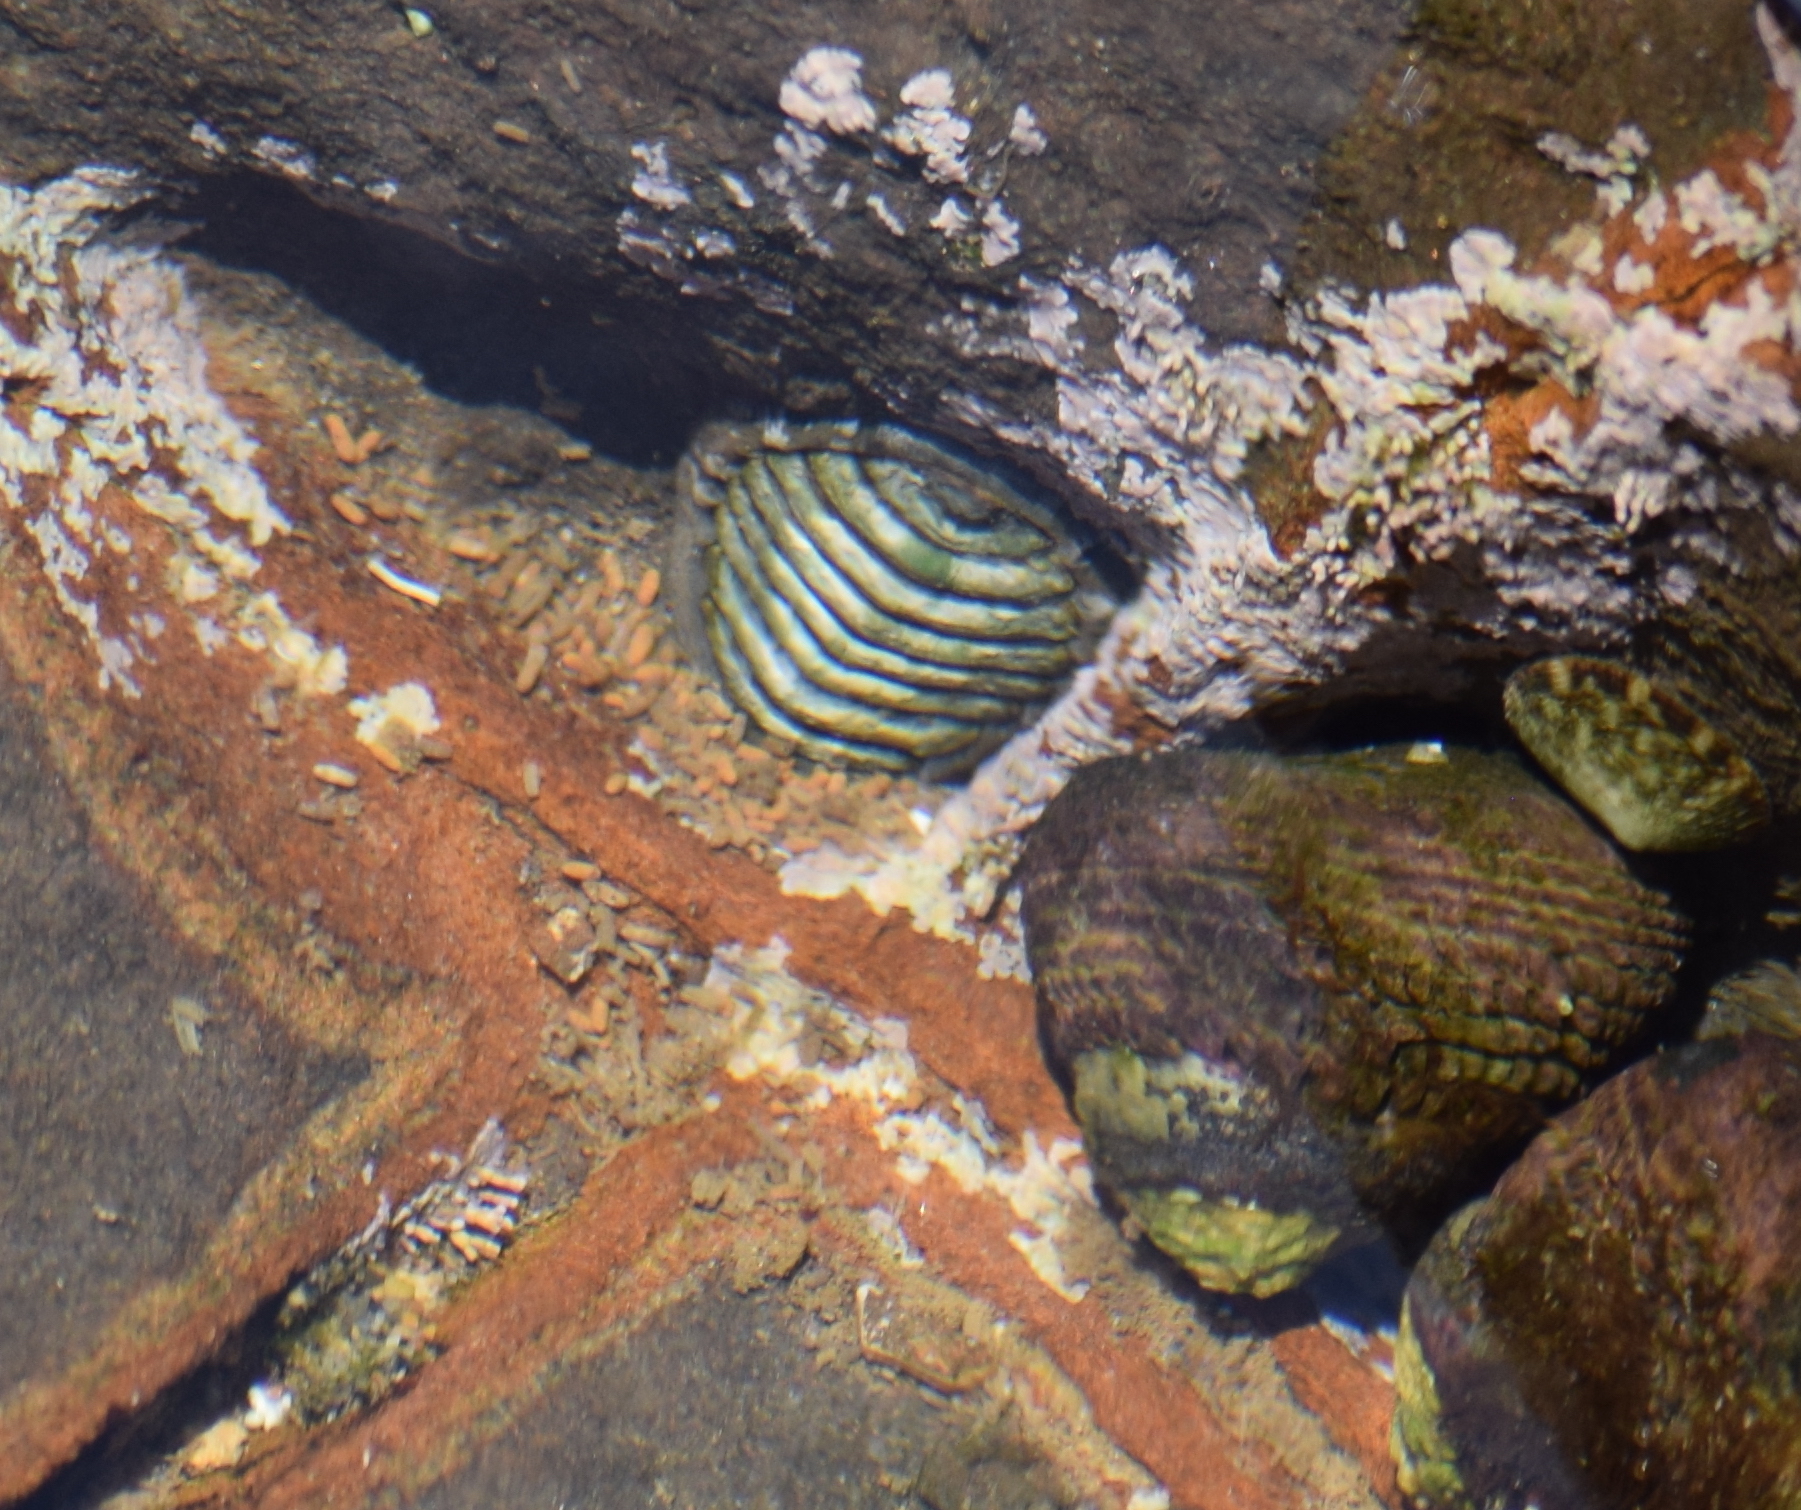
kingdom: Animalia
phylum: Mollusca
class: Polyplacophora
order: Chitonida
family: Tonicellidae
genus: Cyanoplax
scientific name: Cyanoplax hartwegii
